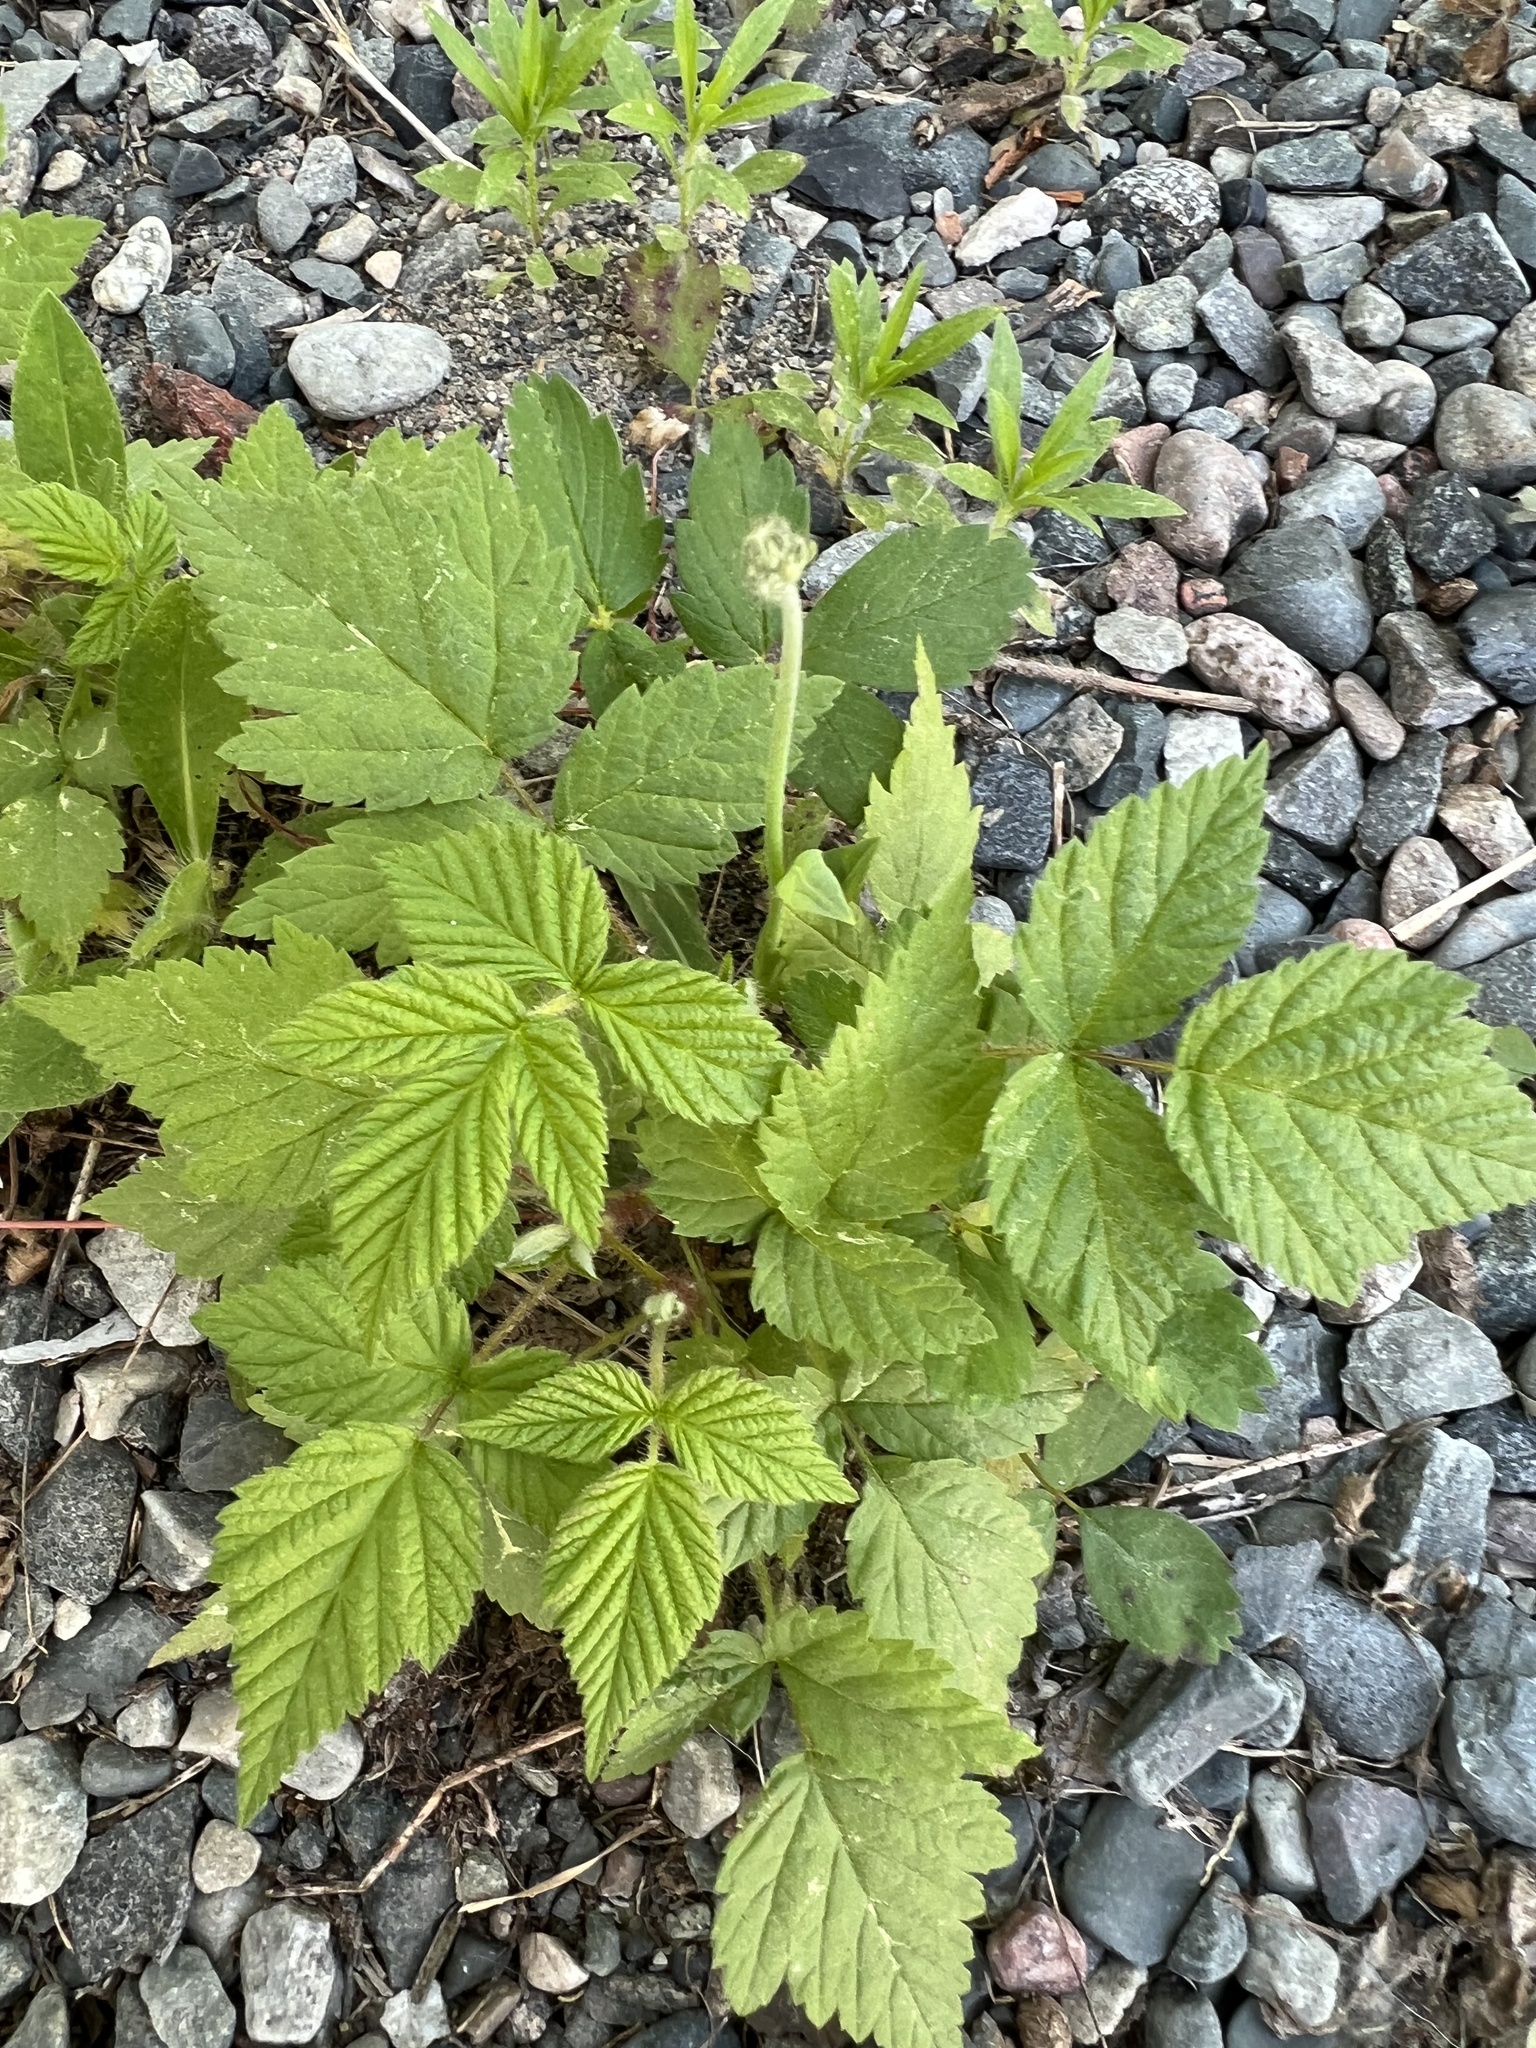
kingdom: Plantae
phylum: Tracheophyta
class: Magnoliopsida
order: Rosales
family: Rosaceae
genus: Rubus
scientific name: Rubus idaeus
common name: Raspberry
